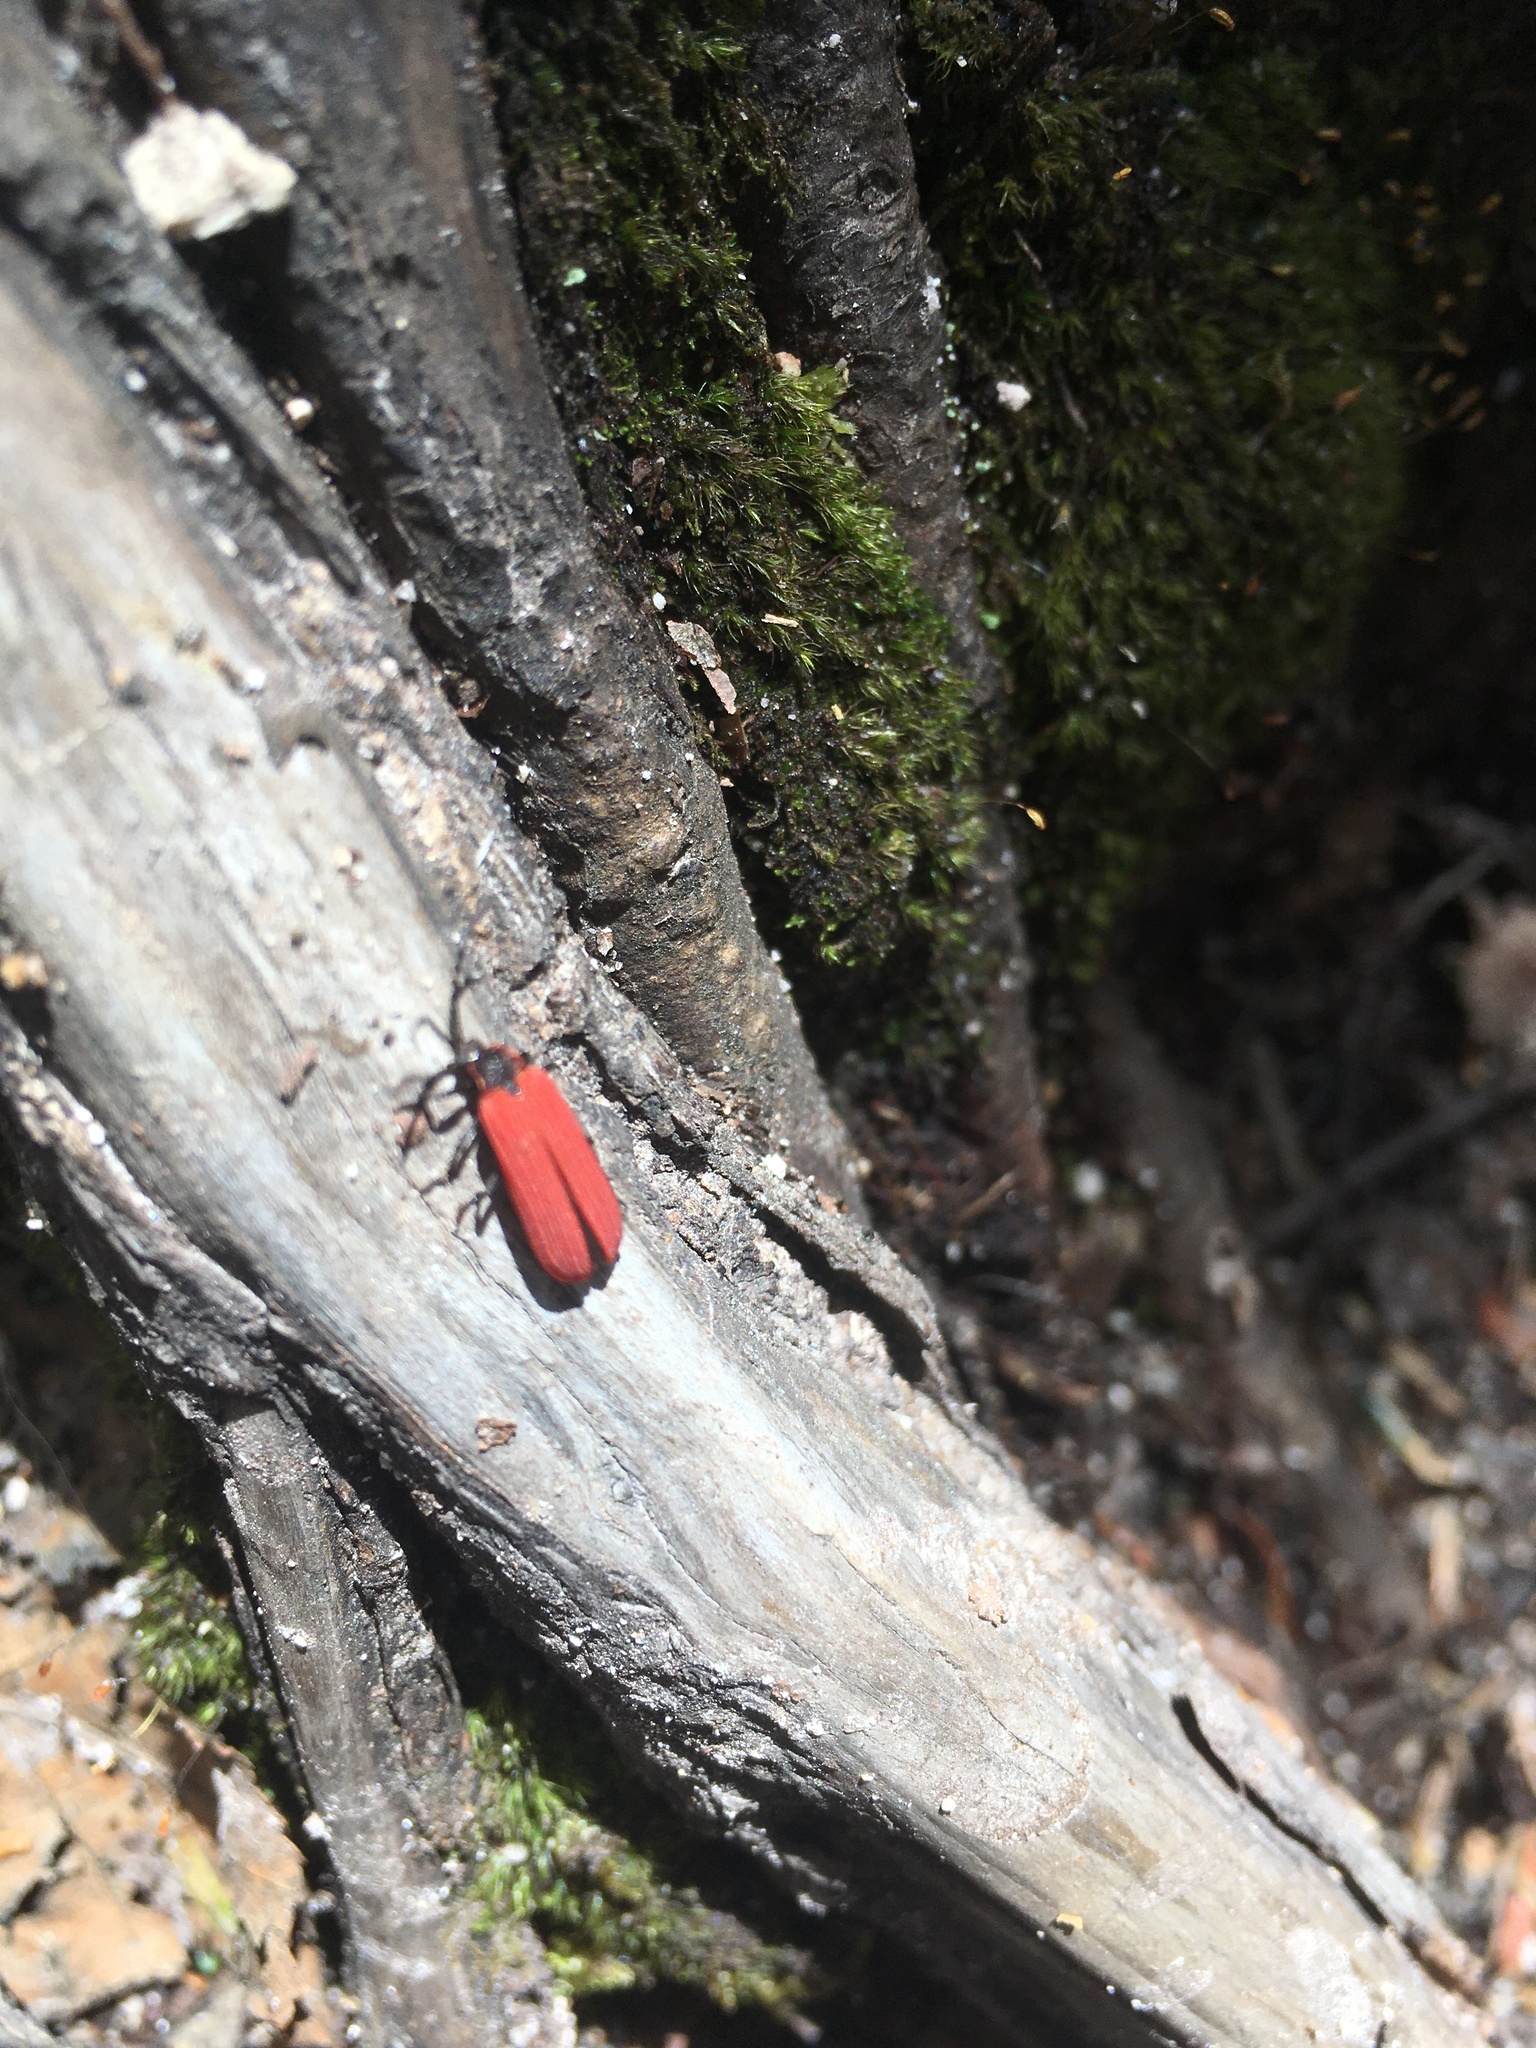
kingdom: Animalia
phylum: Arthropoda
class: Insecta
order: Coleoptera
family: Lycidae
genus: Dictyoptera
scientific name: Dictyoptera aurora
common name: Golden net-winged beetle
